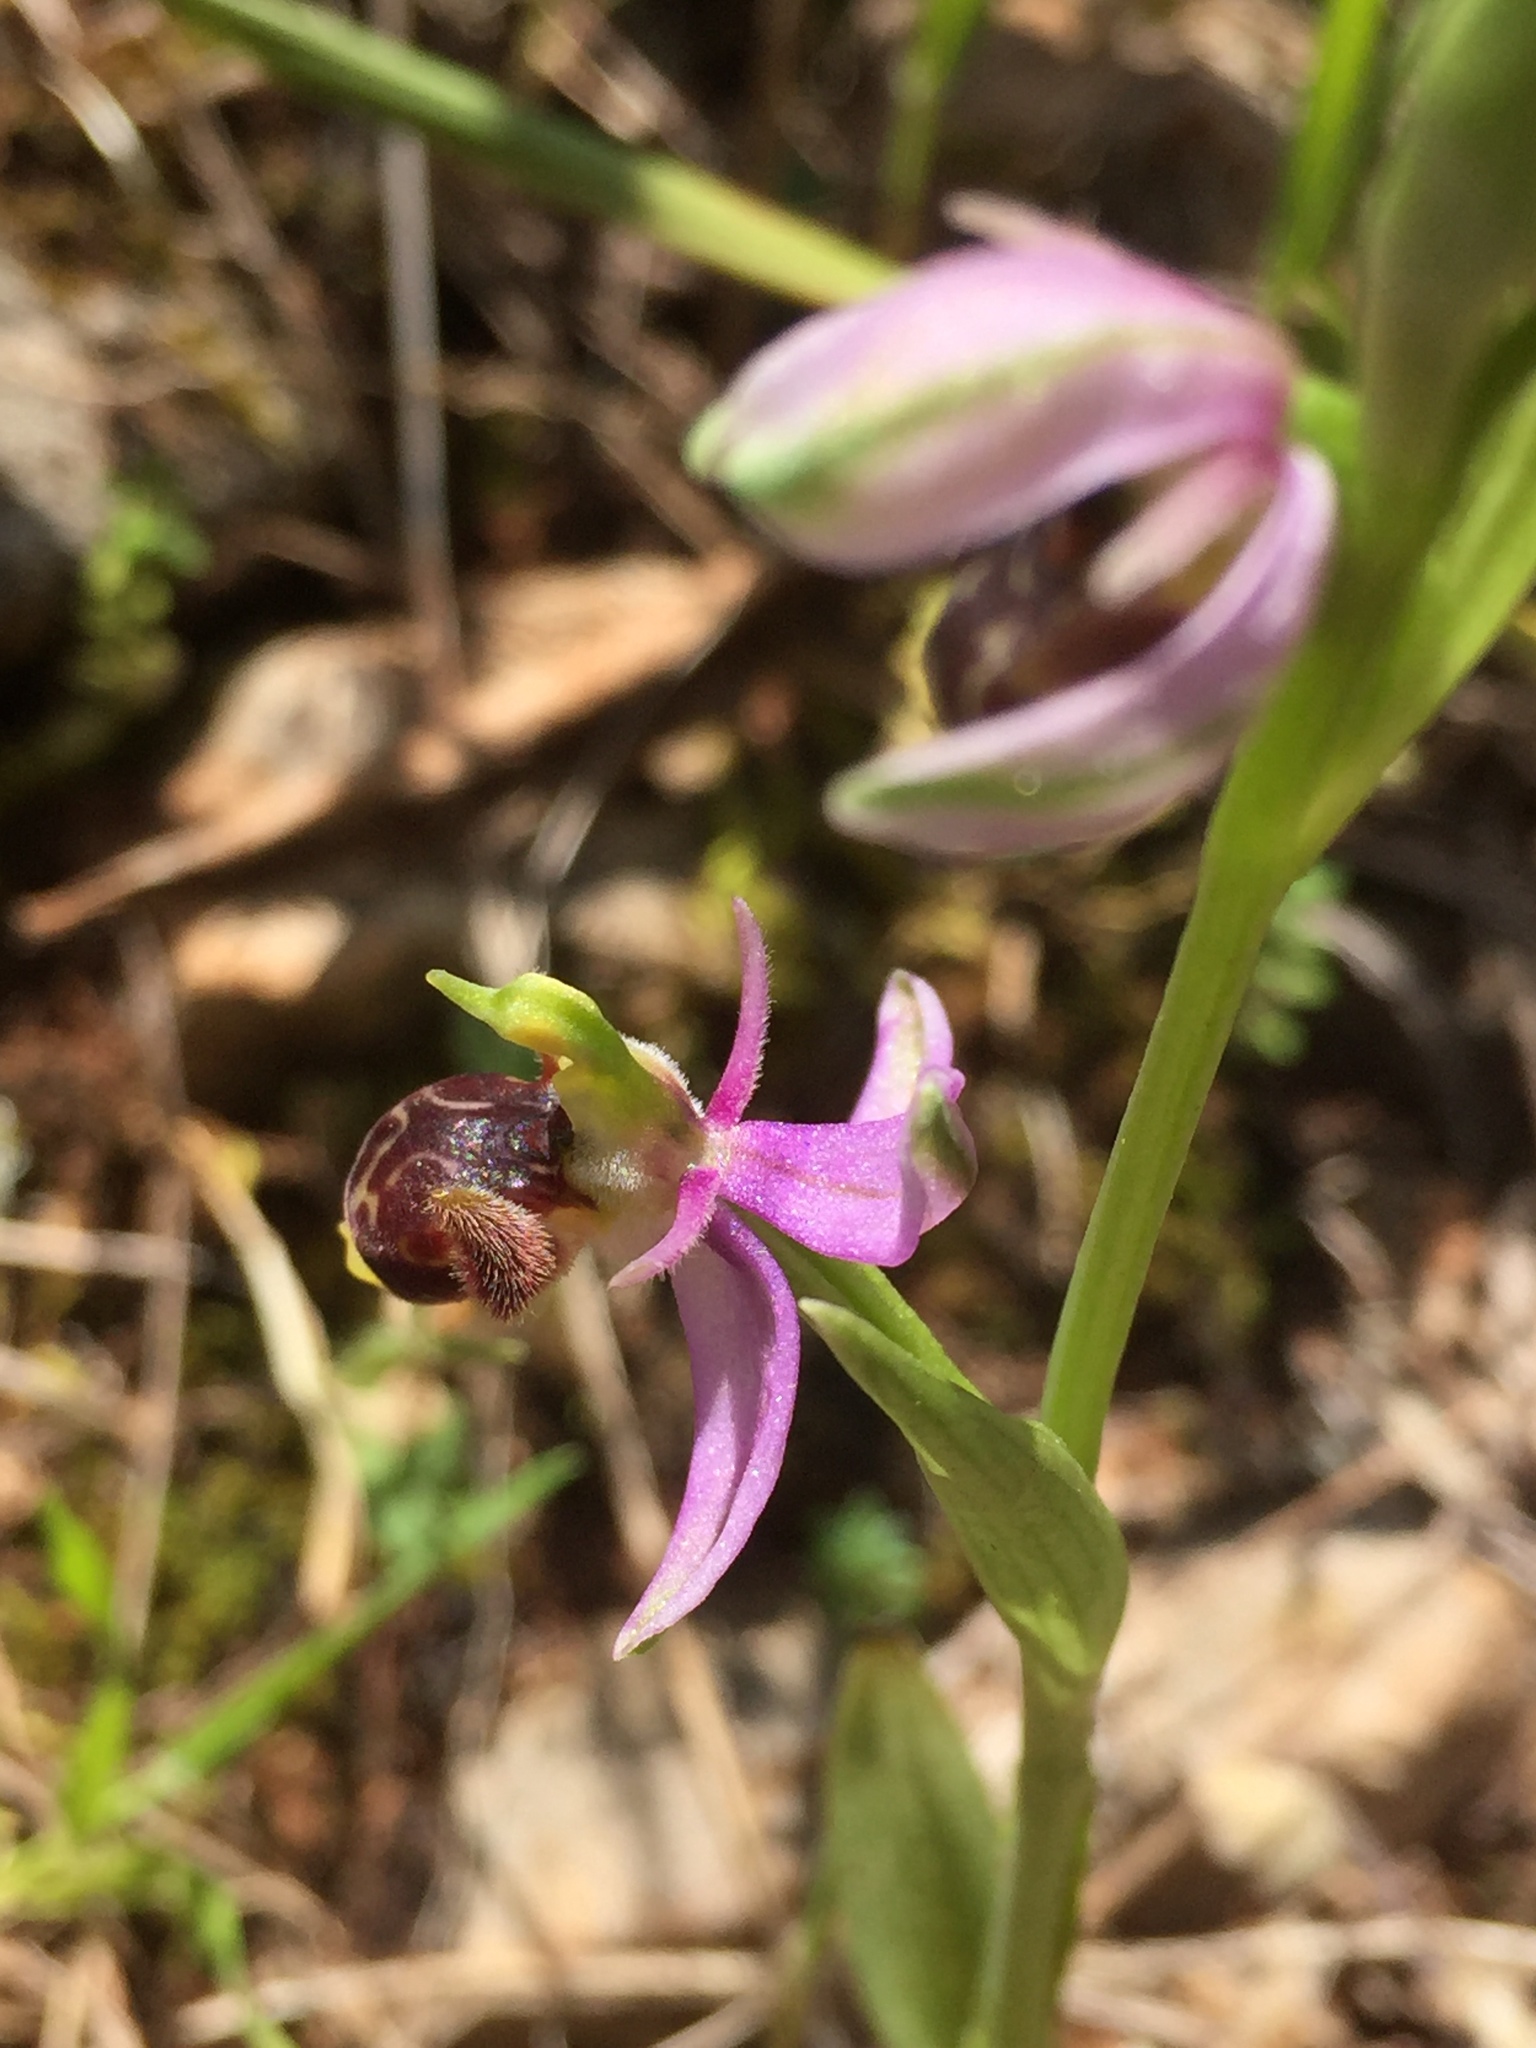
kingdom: Plantae
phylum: Tracheophyta
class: Liliopsida
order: Asparagales
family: Orchidaceae
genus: Ophrys
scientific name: Ophrys scolopax
